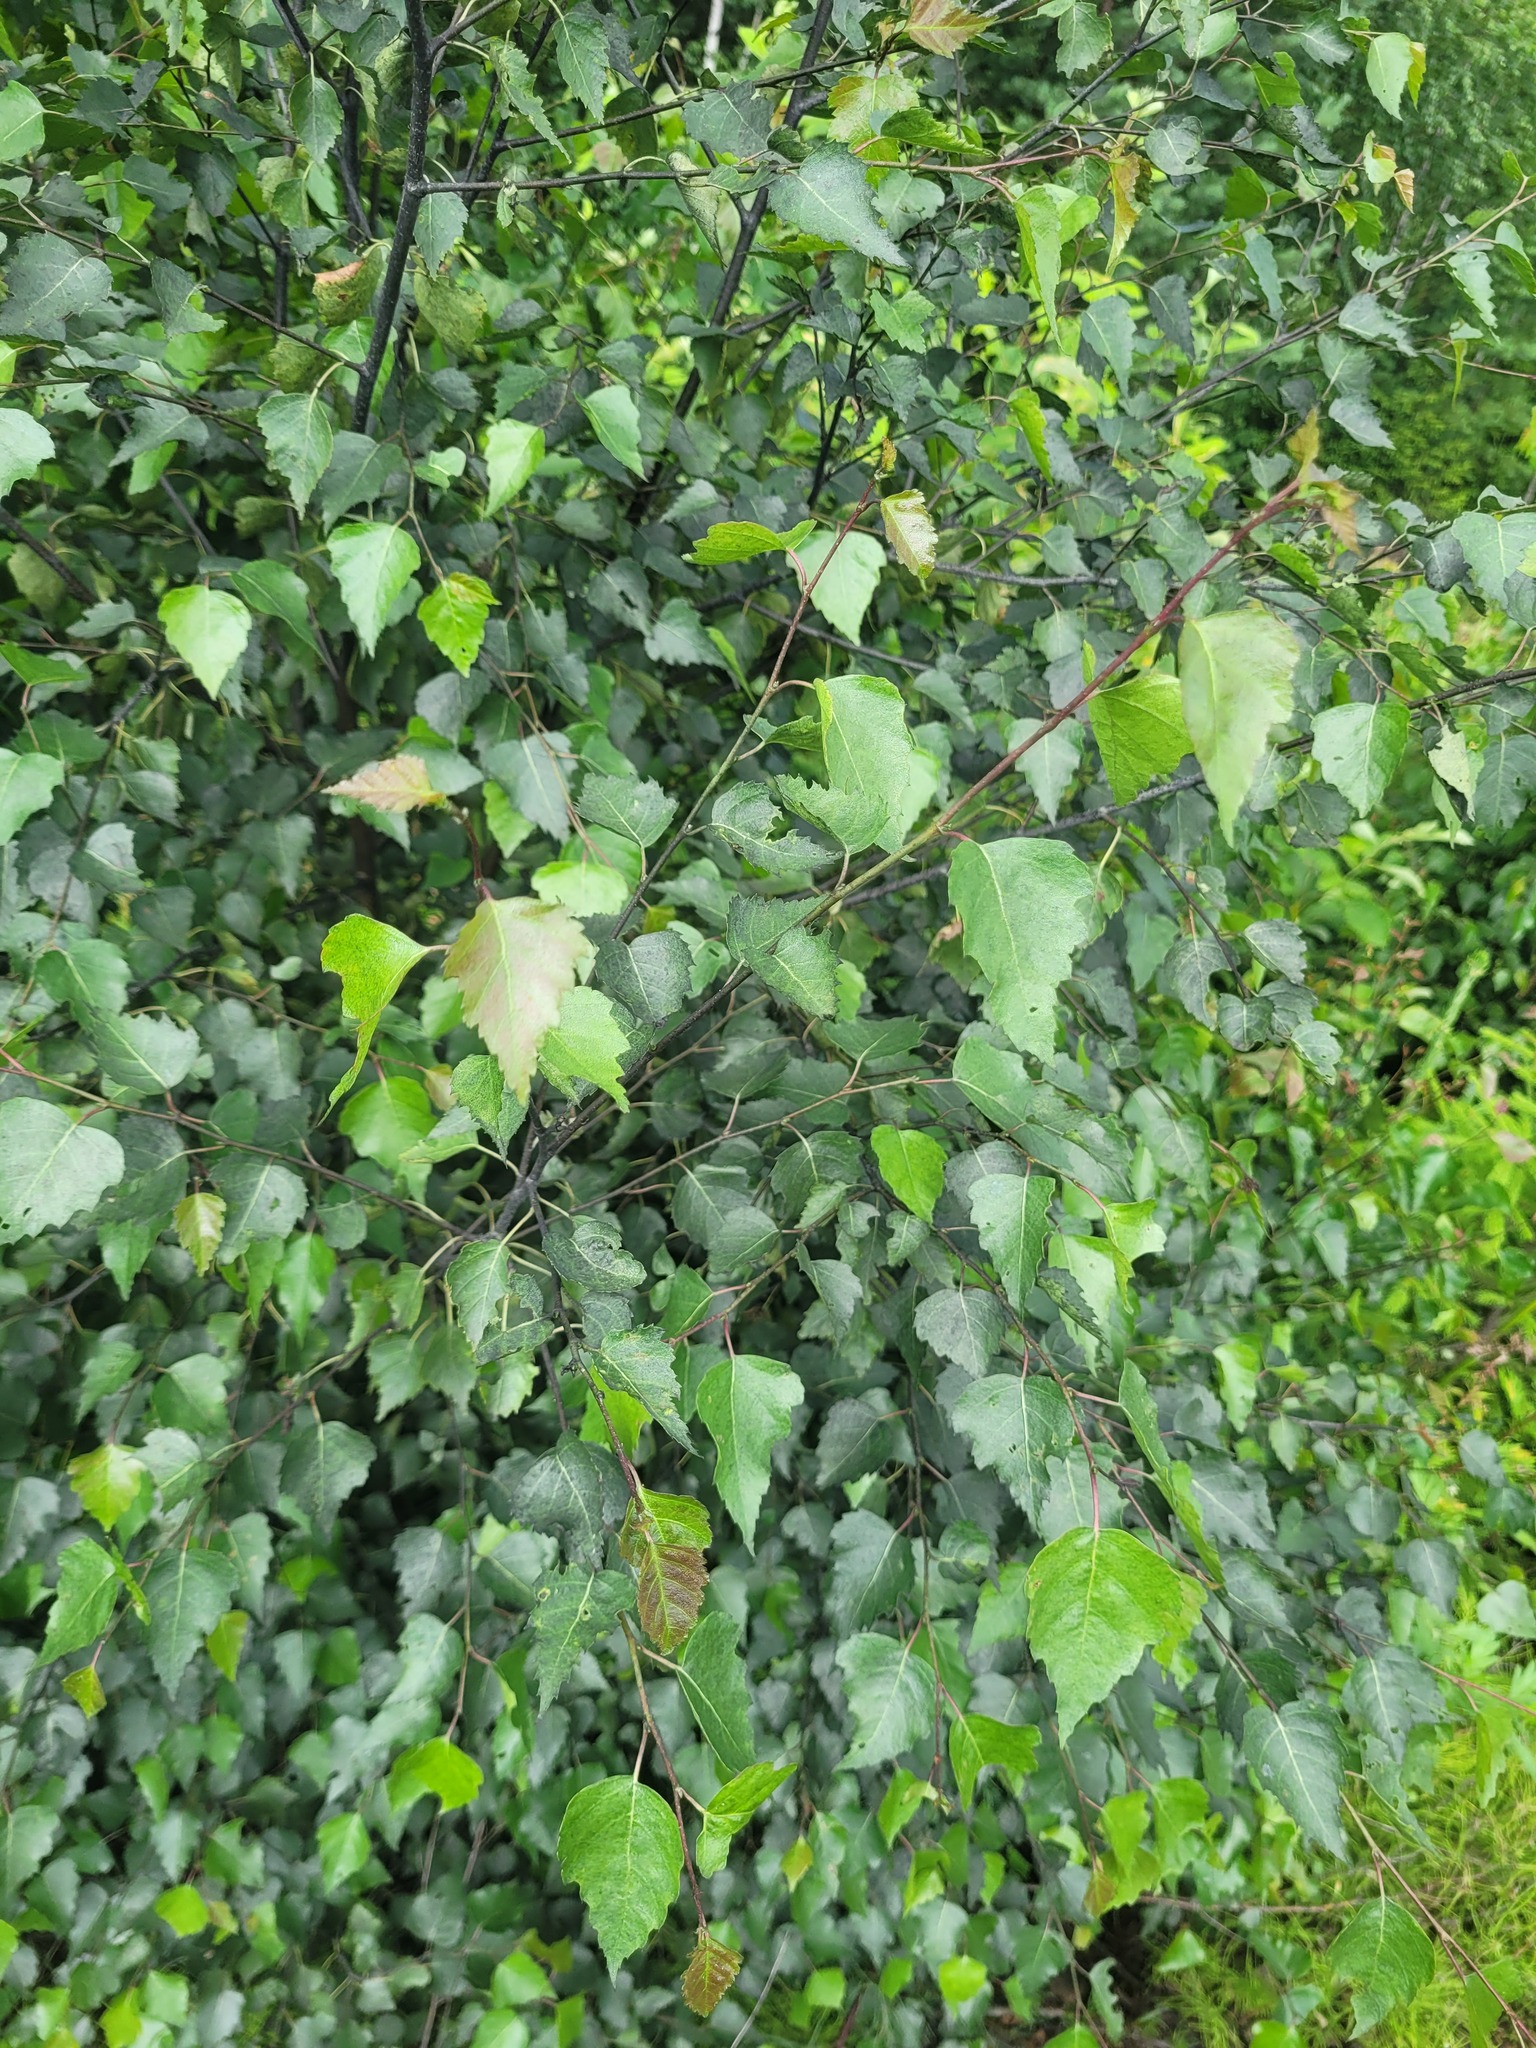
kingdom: Plantae
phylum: Tracheophyta
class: Magnoliopsida
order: Fagales
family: Betulaceae
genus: Betula
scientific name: Betula pendula
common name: Silver birch
